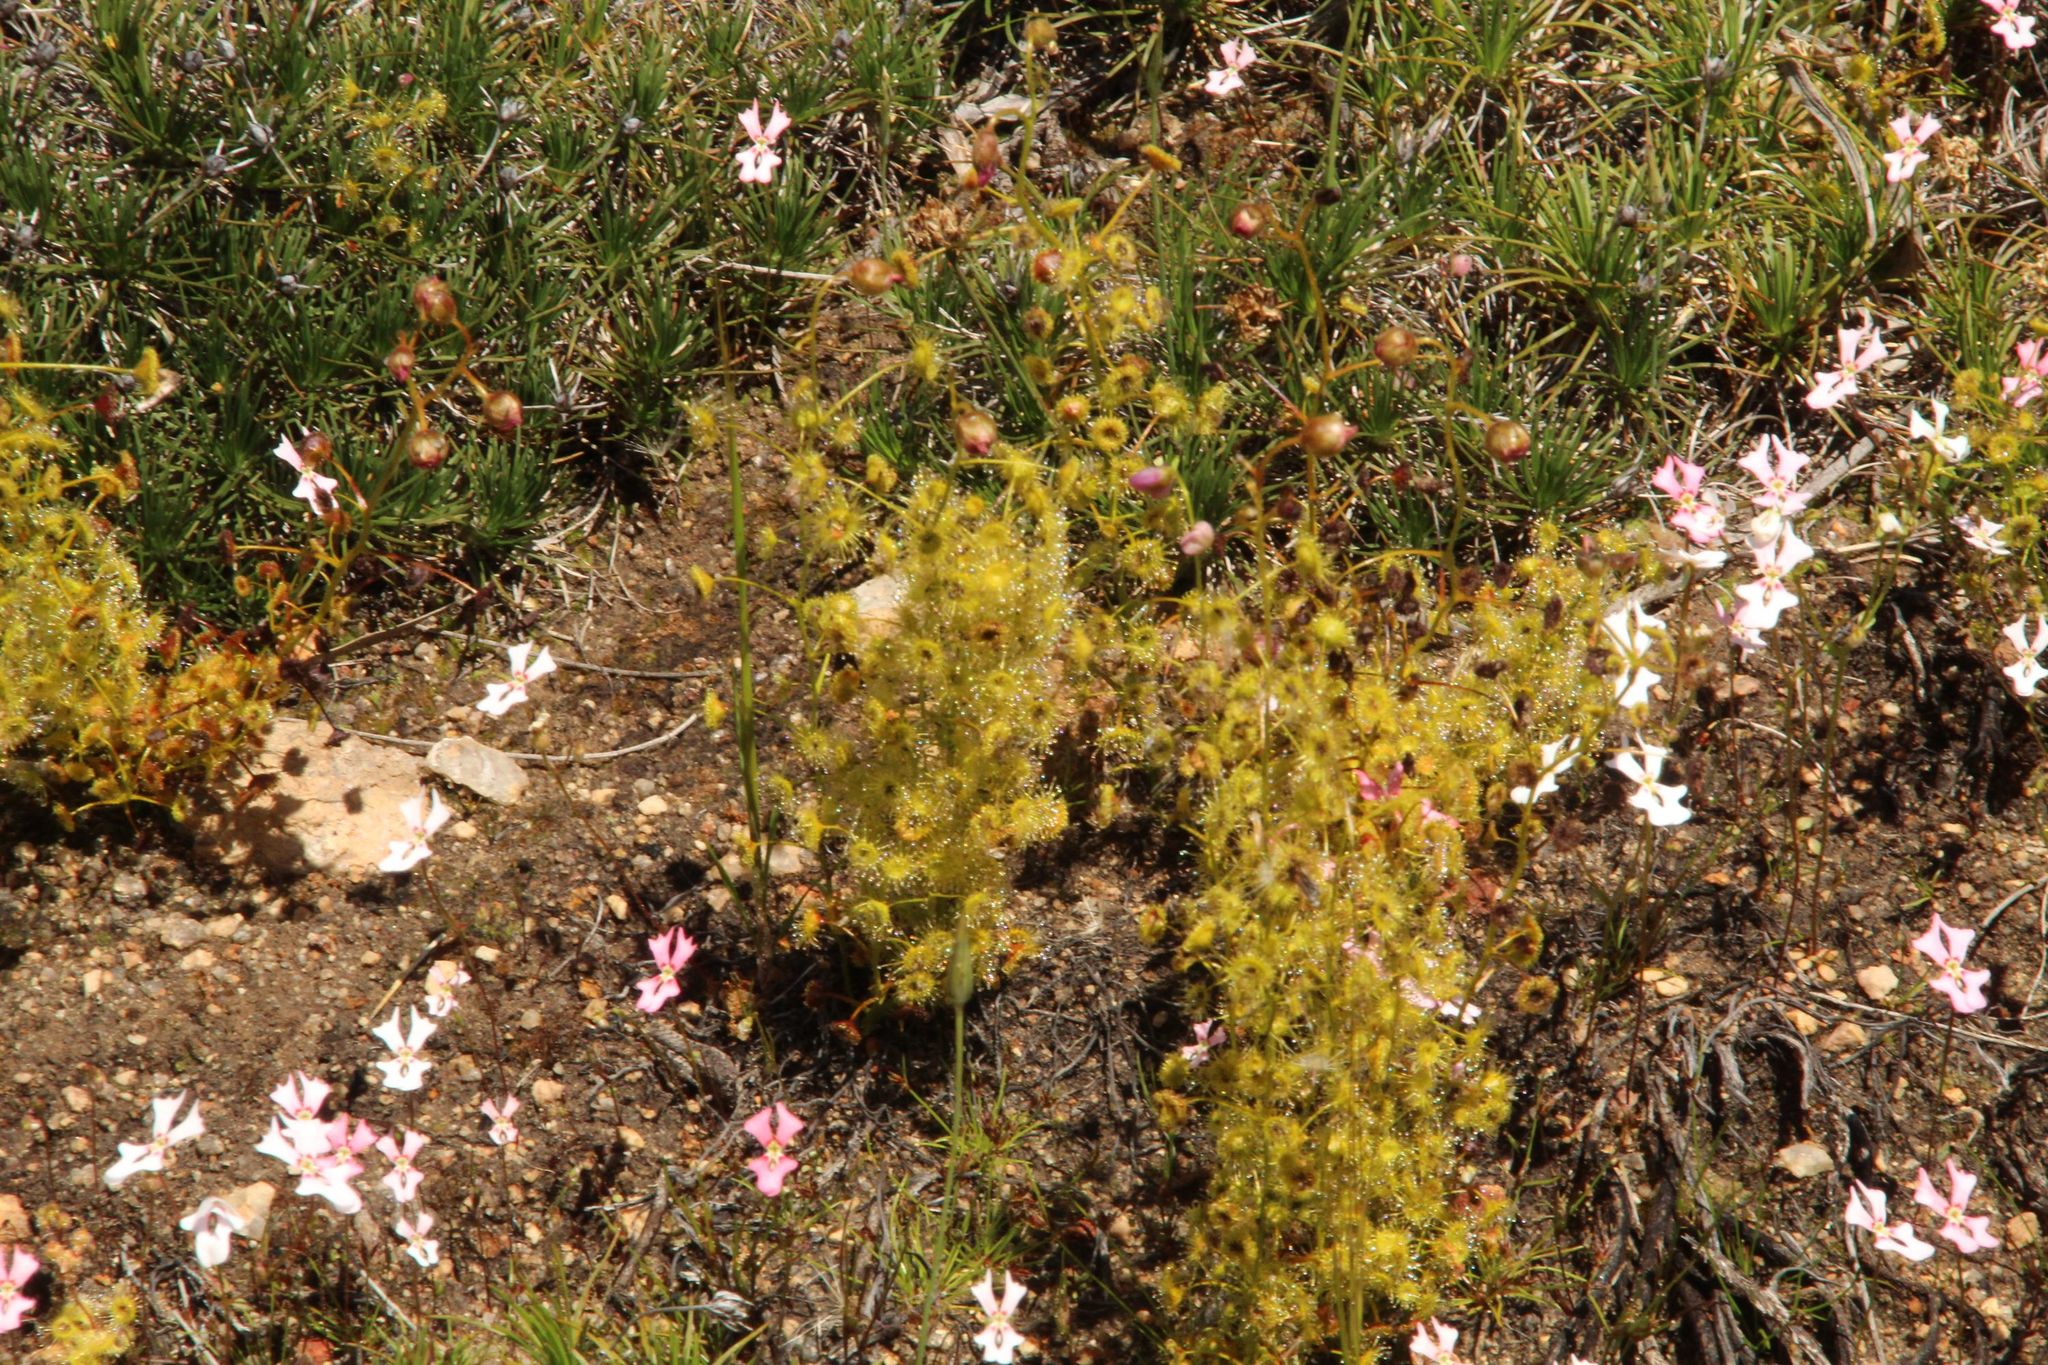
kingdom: Plantae
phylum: Tracheophyta
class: Magnoliopsida
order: Caryophyllales
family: Droseraceae
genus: Drosera
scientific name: Drosera stricticaulis
